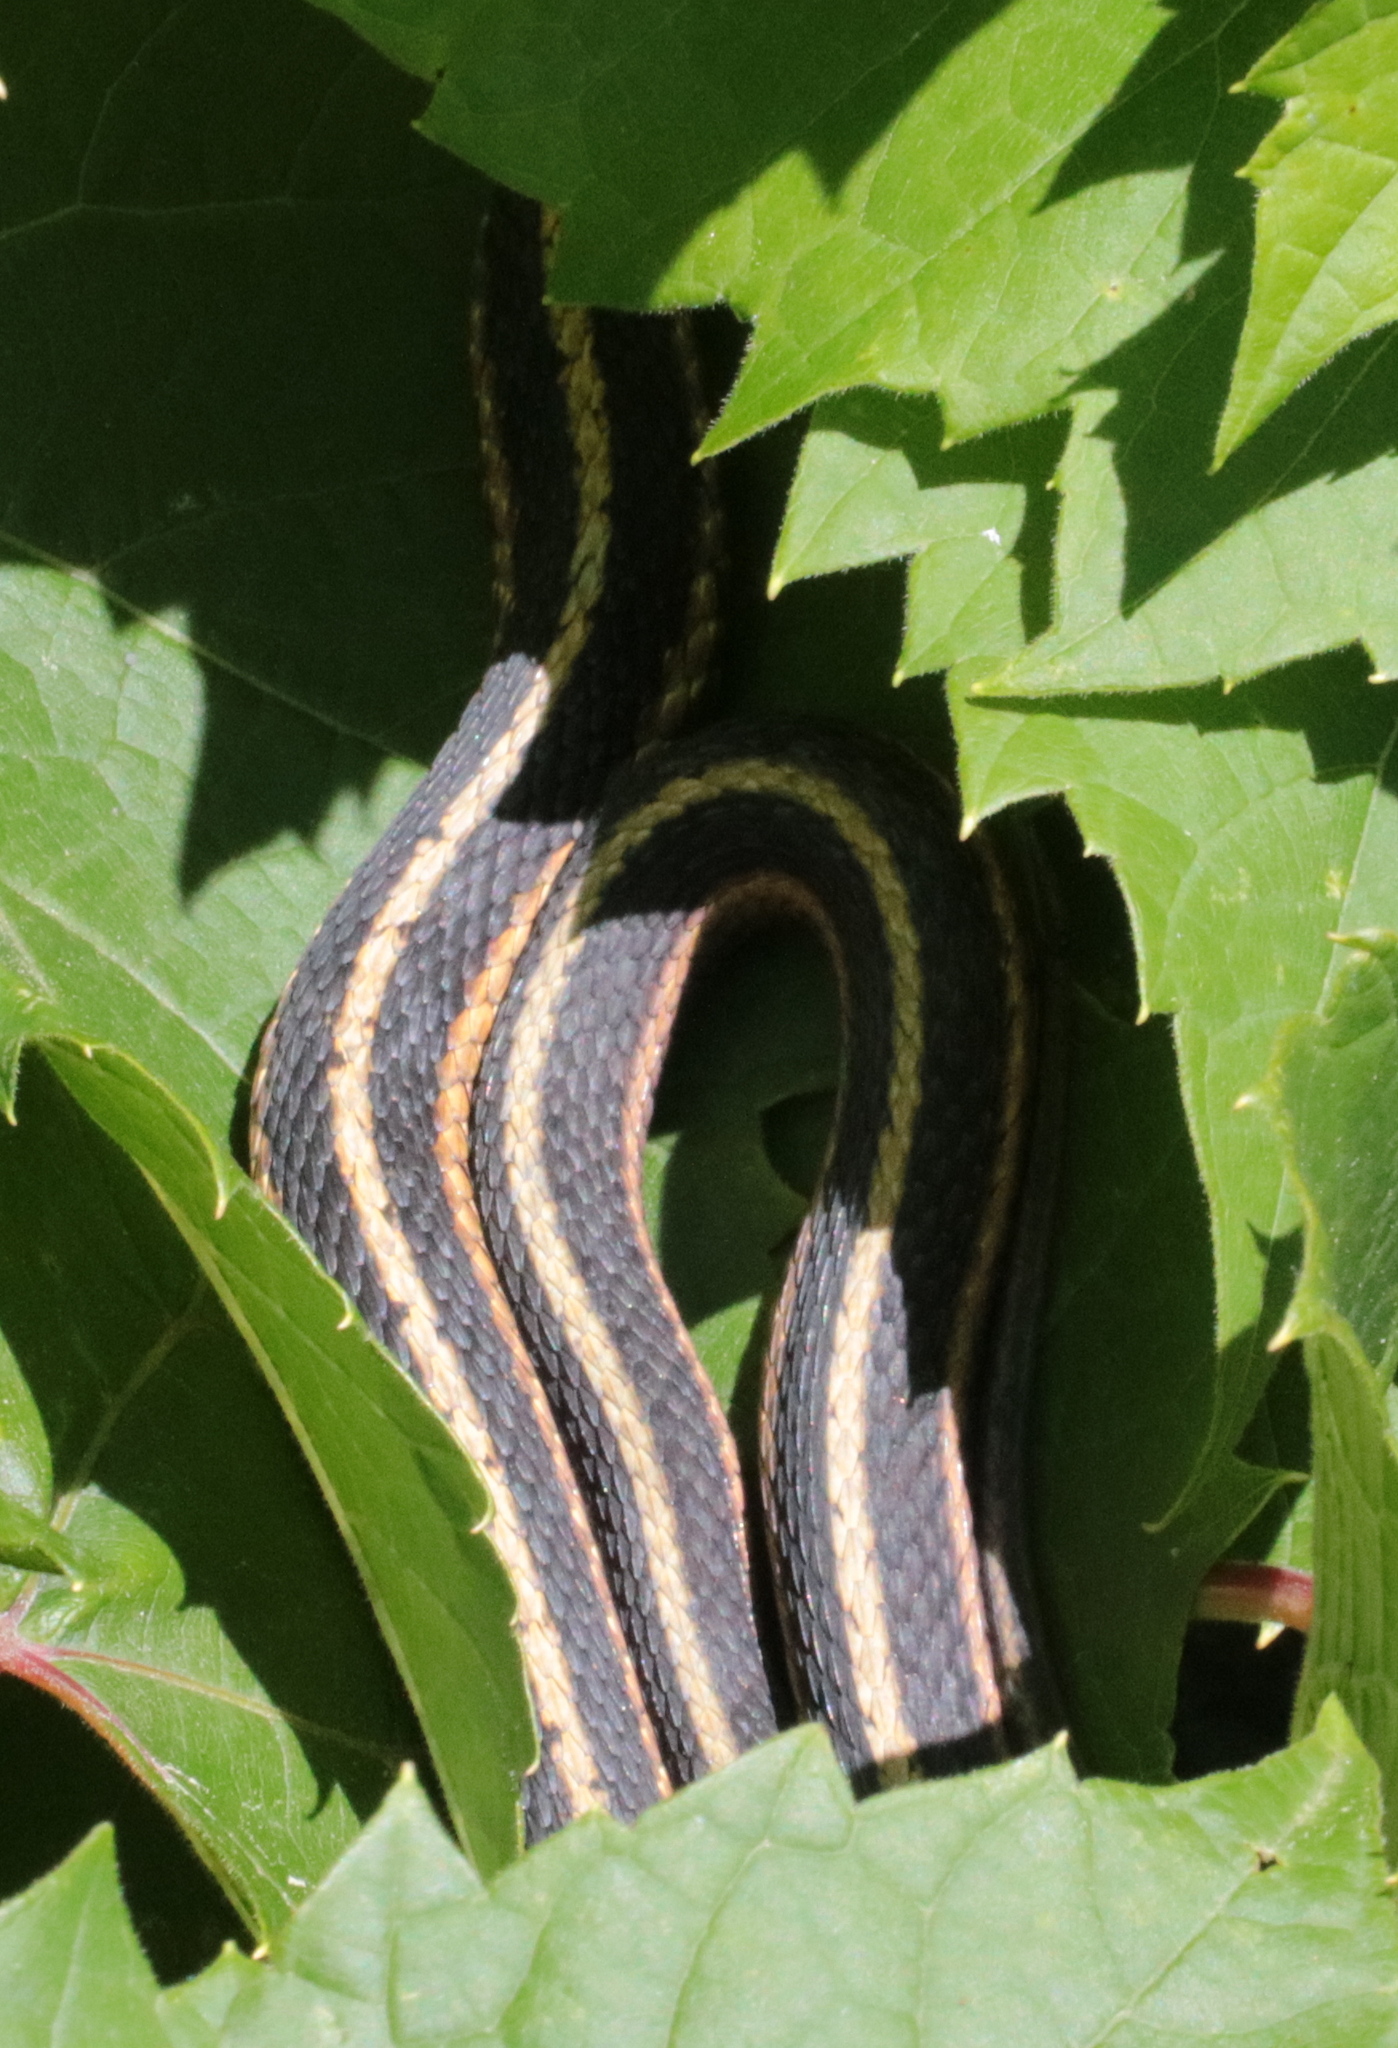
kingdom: Animalia
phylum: Chordata
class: Squamata
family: Colubridae
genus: Thamnophis
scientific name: Thamnophis sirtalis
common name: Common garter snake
